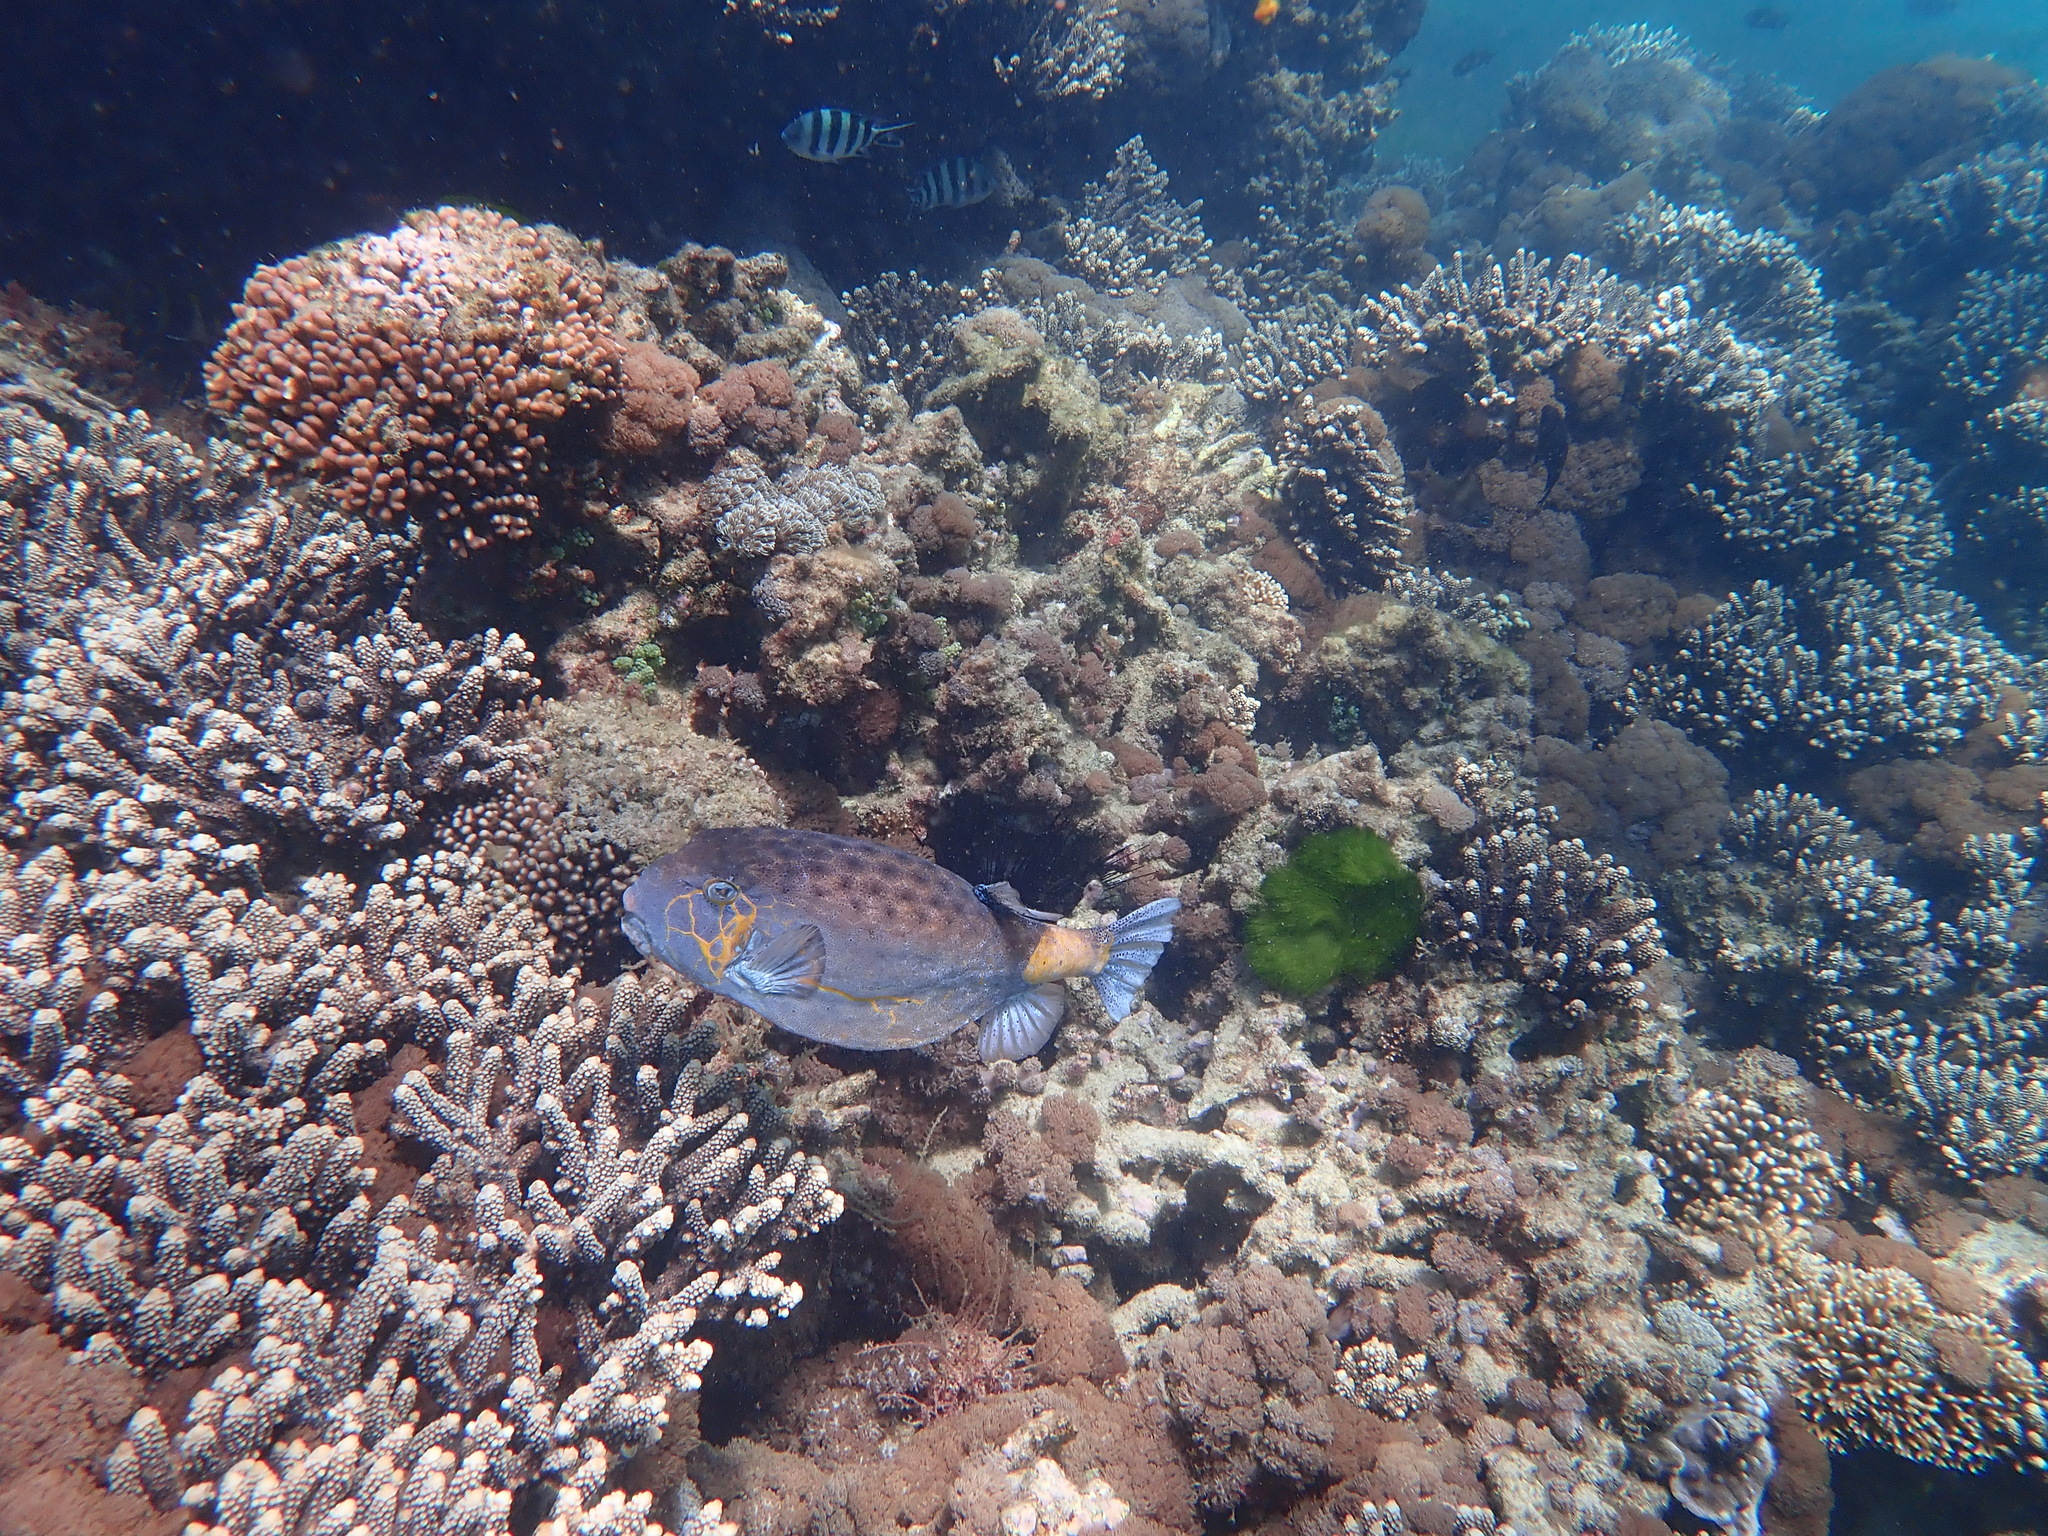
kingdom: Animalia
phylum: Chordata
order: Tetraodontiformes
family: Ostraciidae
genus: Ostracion
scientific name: Ostracion cubicus
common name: Cube trunkfish
